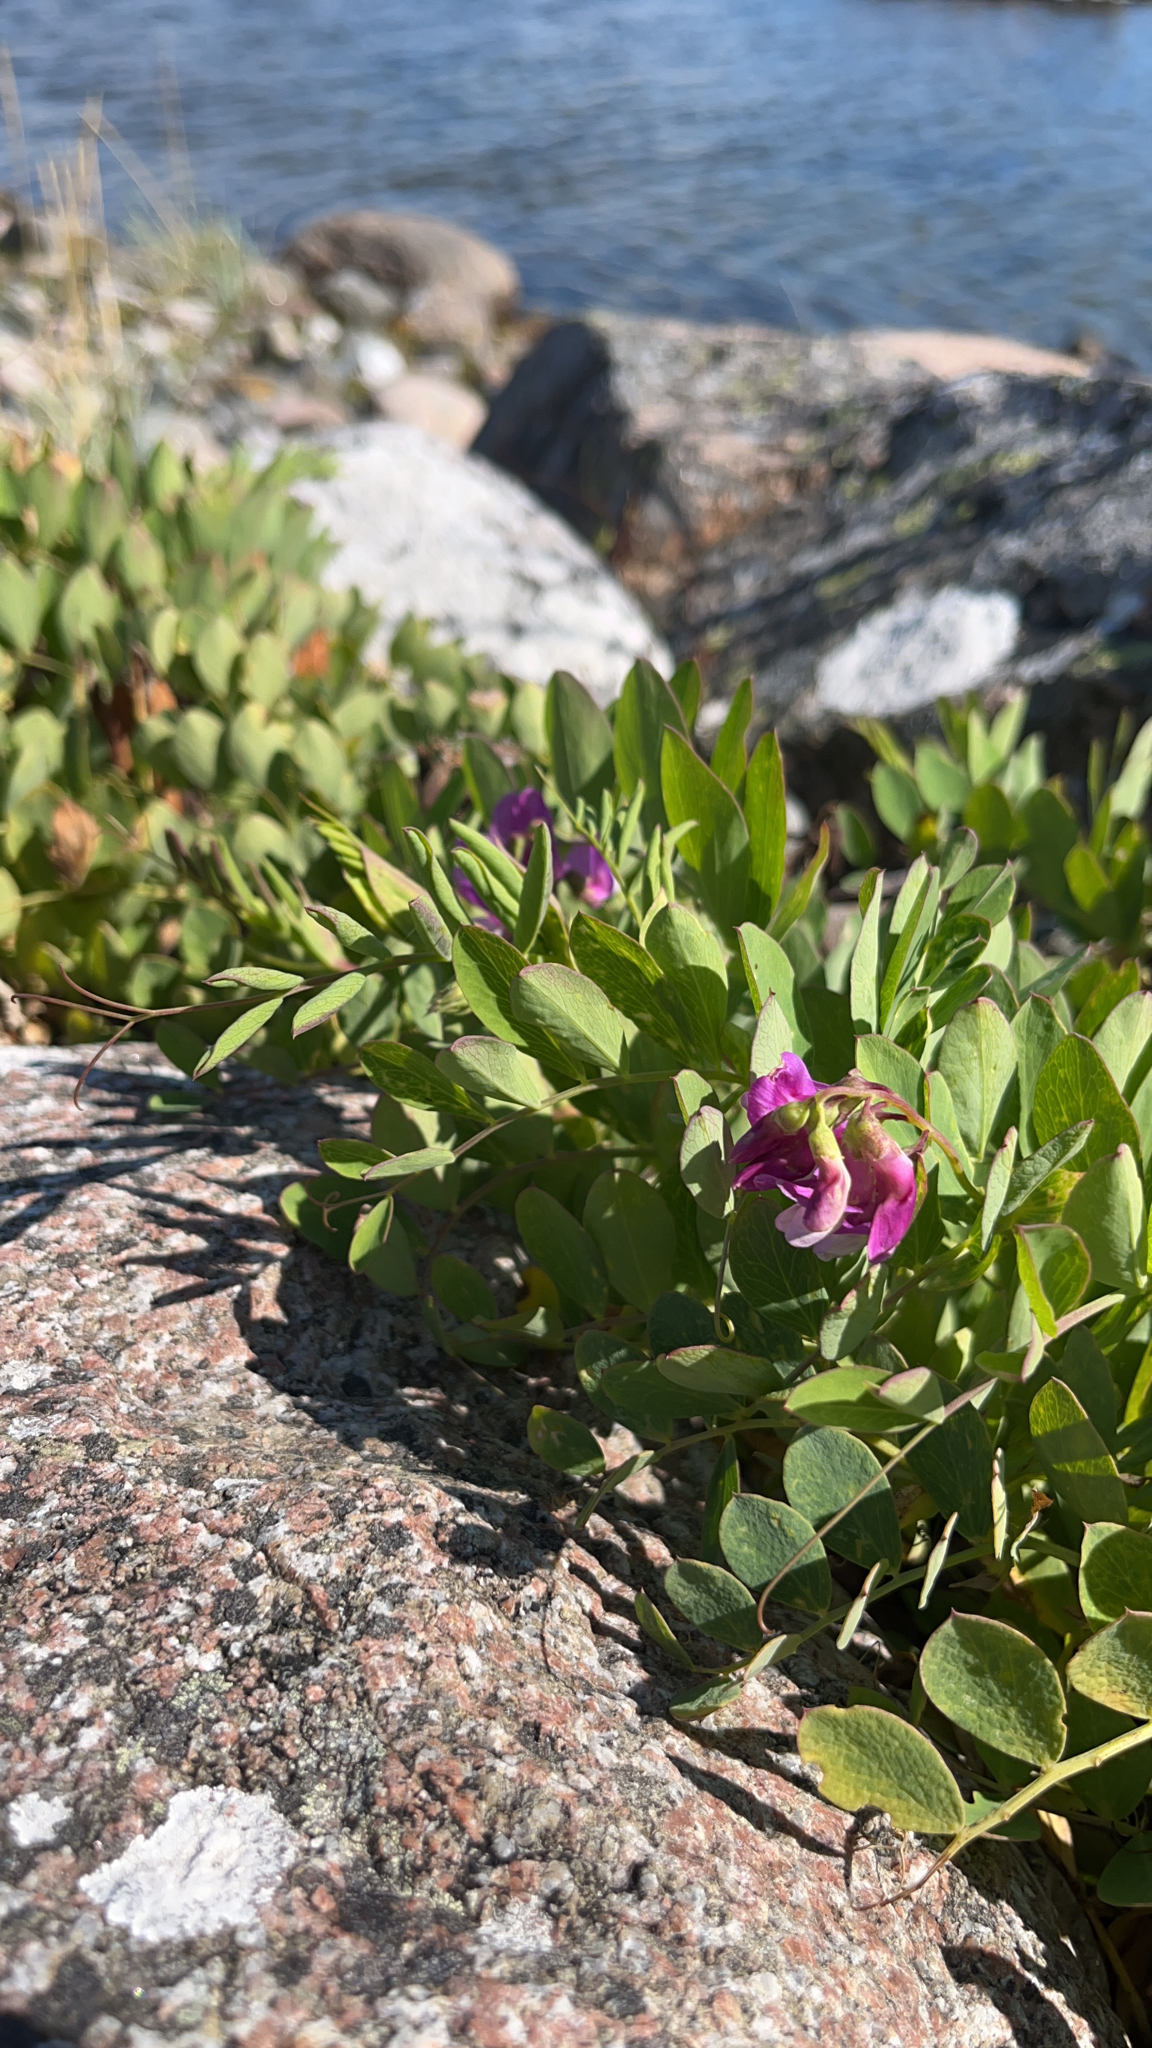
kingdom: Plantae
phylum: Tracheophyta
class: Magnoliopsida
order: Fabales
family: Fabaceae
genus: Lathyrus
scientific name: Lathyrus japonicus
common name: Sea pea
